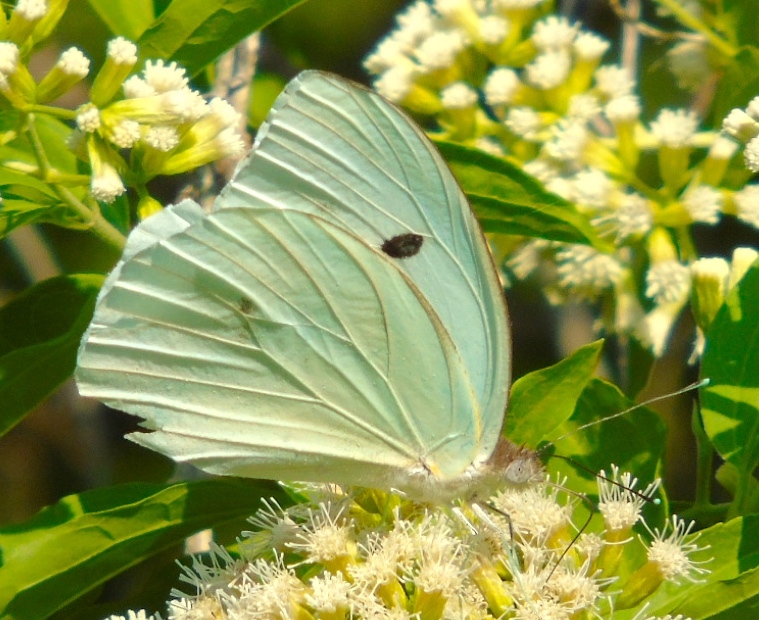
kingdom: Animalia
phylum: Arthropoda
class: Insecta
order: Lepidoptera
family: Pieridae
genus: Ganyra
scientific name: Ganyra josephina
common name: Giant white
